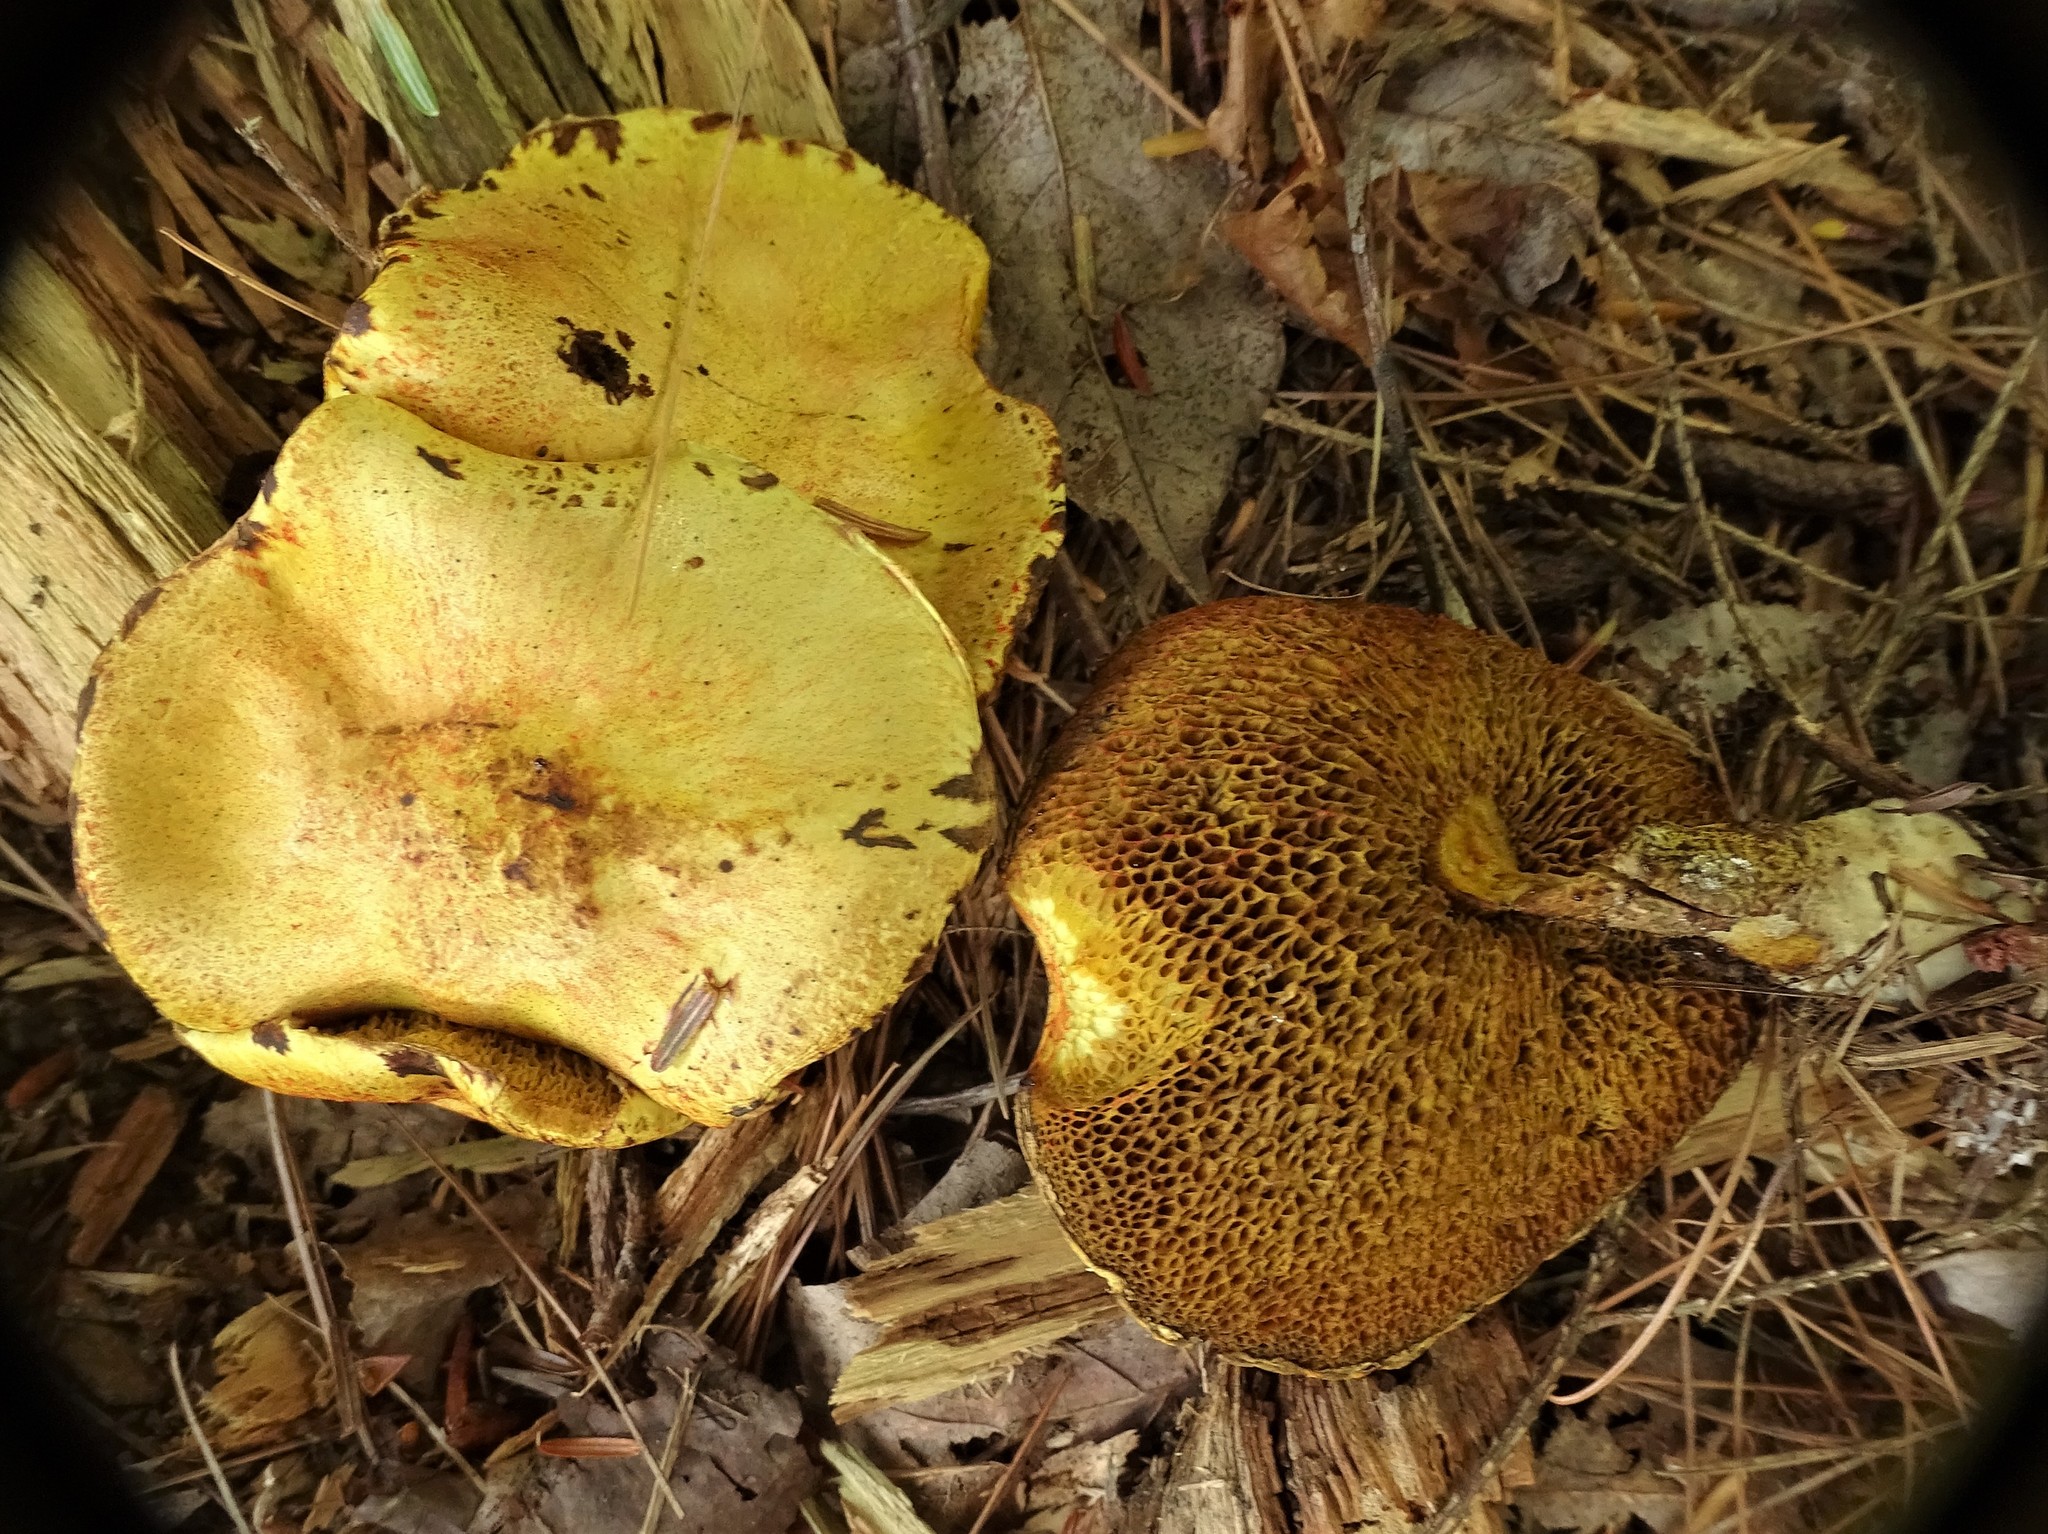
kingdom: Fungi
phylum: Basidiomycota
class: Agaricomycetes
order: Boletales
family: Suillaceae
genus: Suillus
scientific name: Suillus americanus
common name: Chicken fat mushroom
